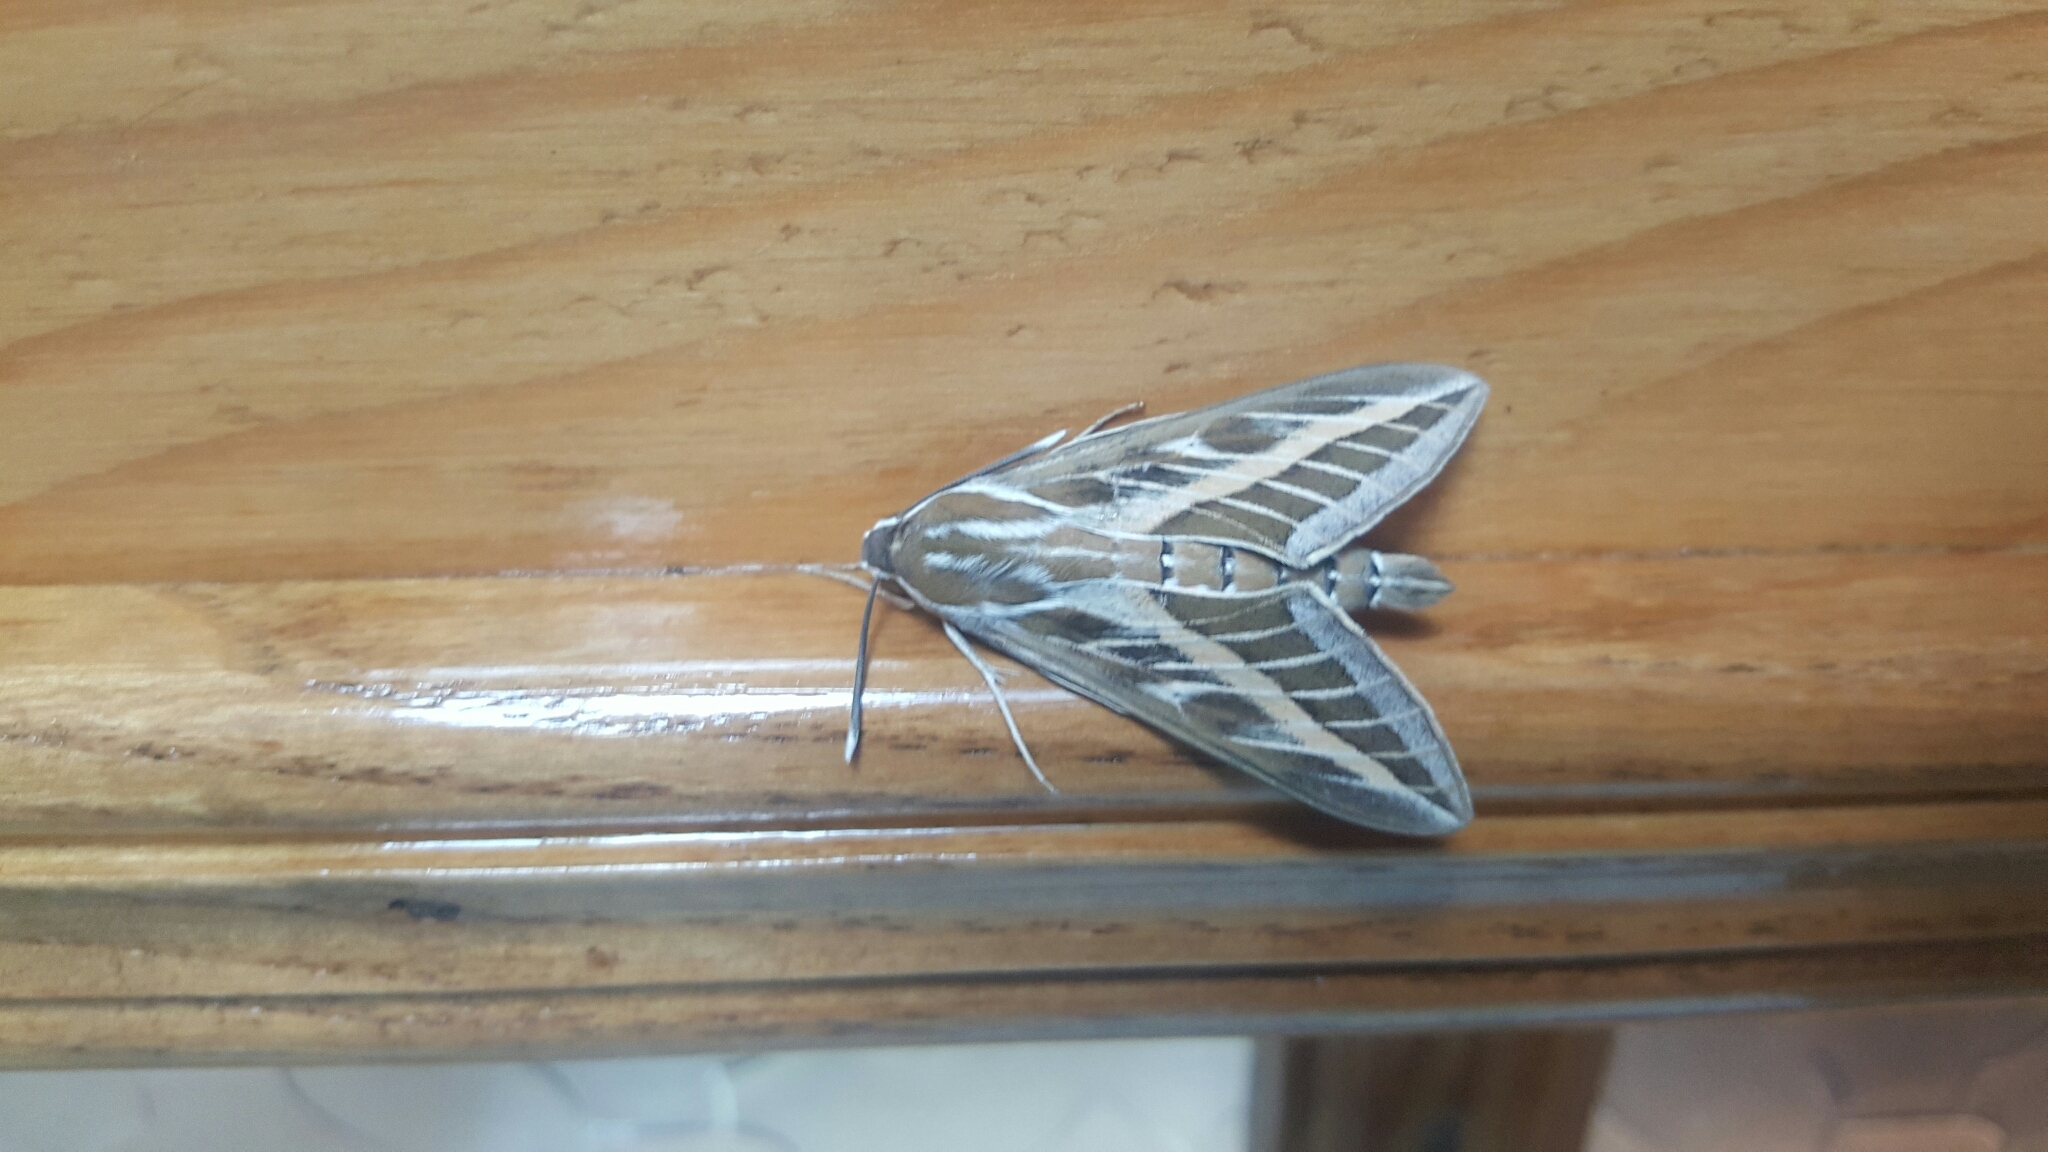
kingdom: Animalia
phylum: Arthropoda
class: Insecta
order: Lepidoptera
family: Sphingidae
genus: Hyles
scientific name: Hyles livornica
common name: Striped hawk-moth
